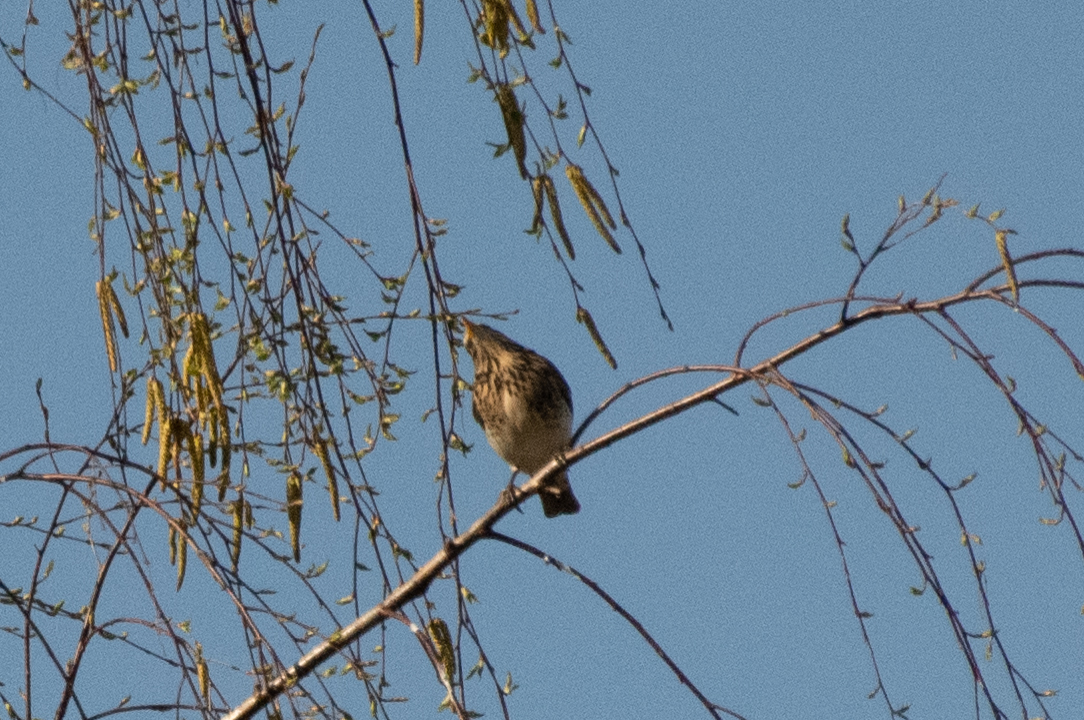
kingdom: Animalia
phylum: Chordata
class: Aves
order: Passeriformes
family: Turdidae
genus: Turdus
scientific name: Turdus pilaris
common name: Fieldfare
